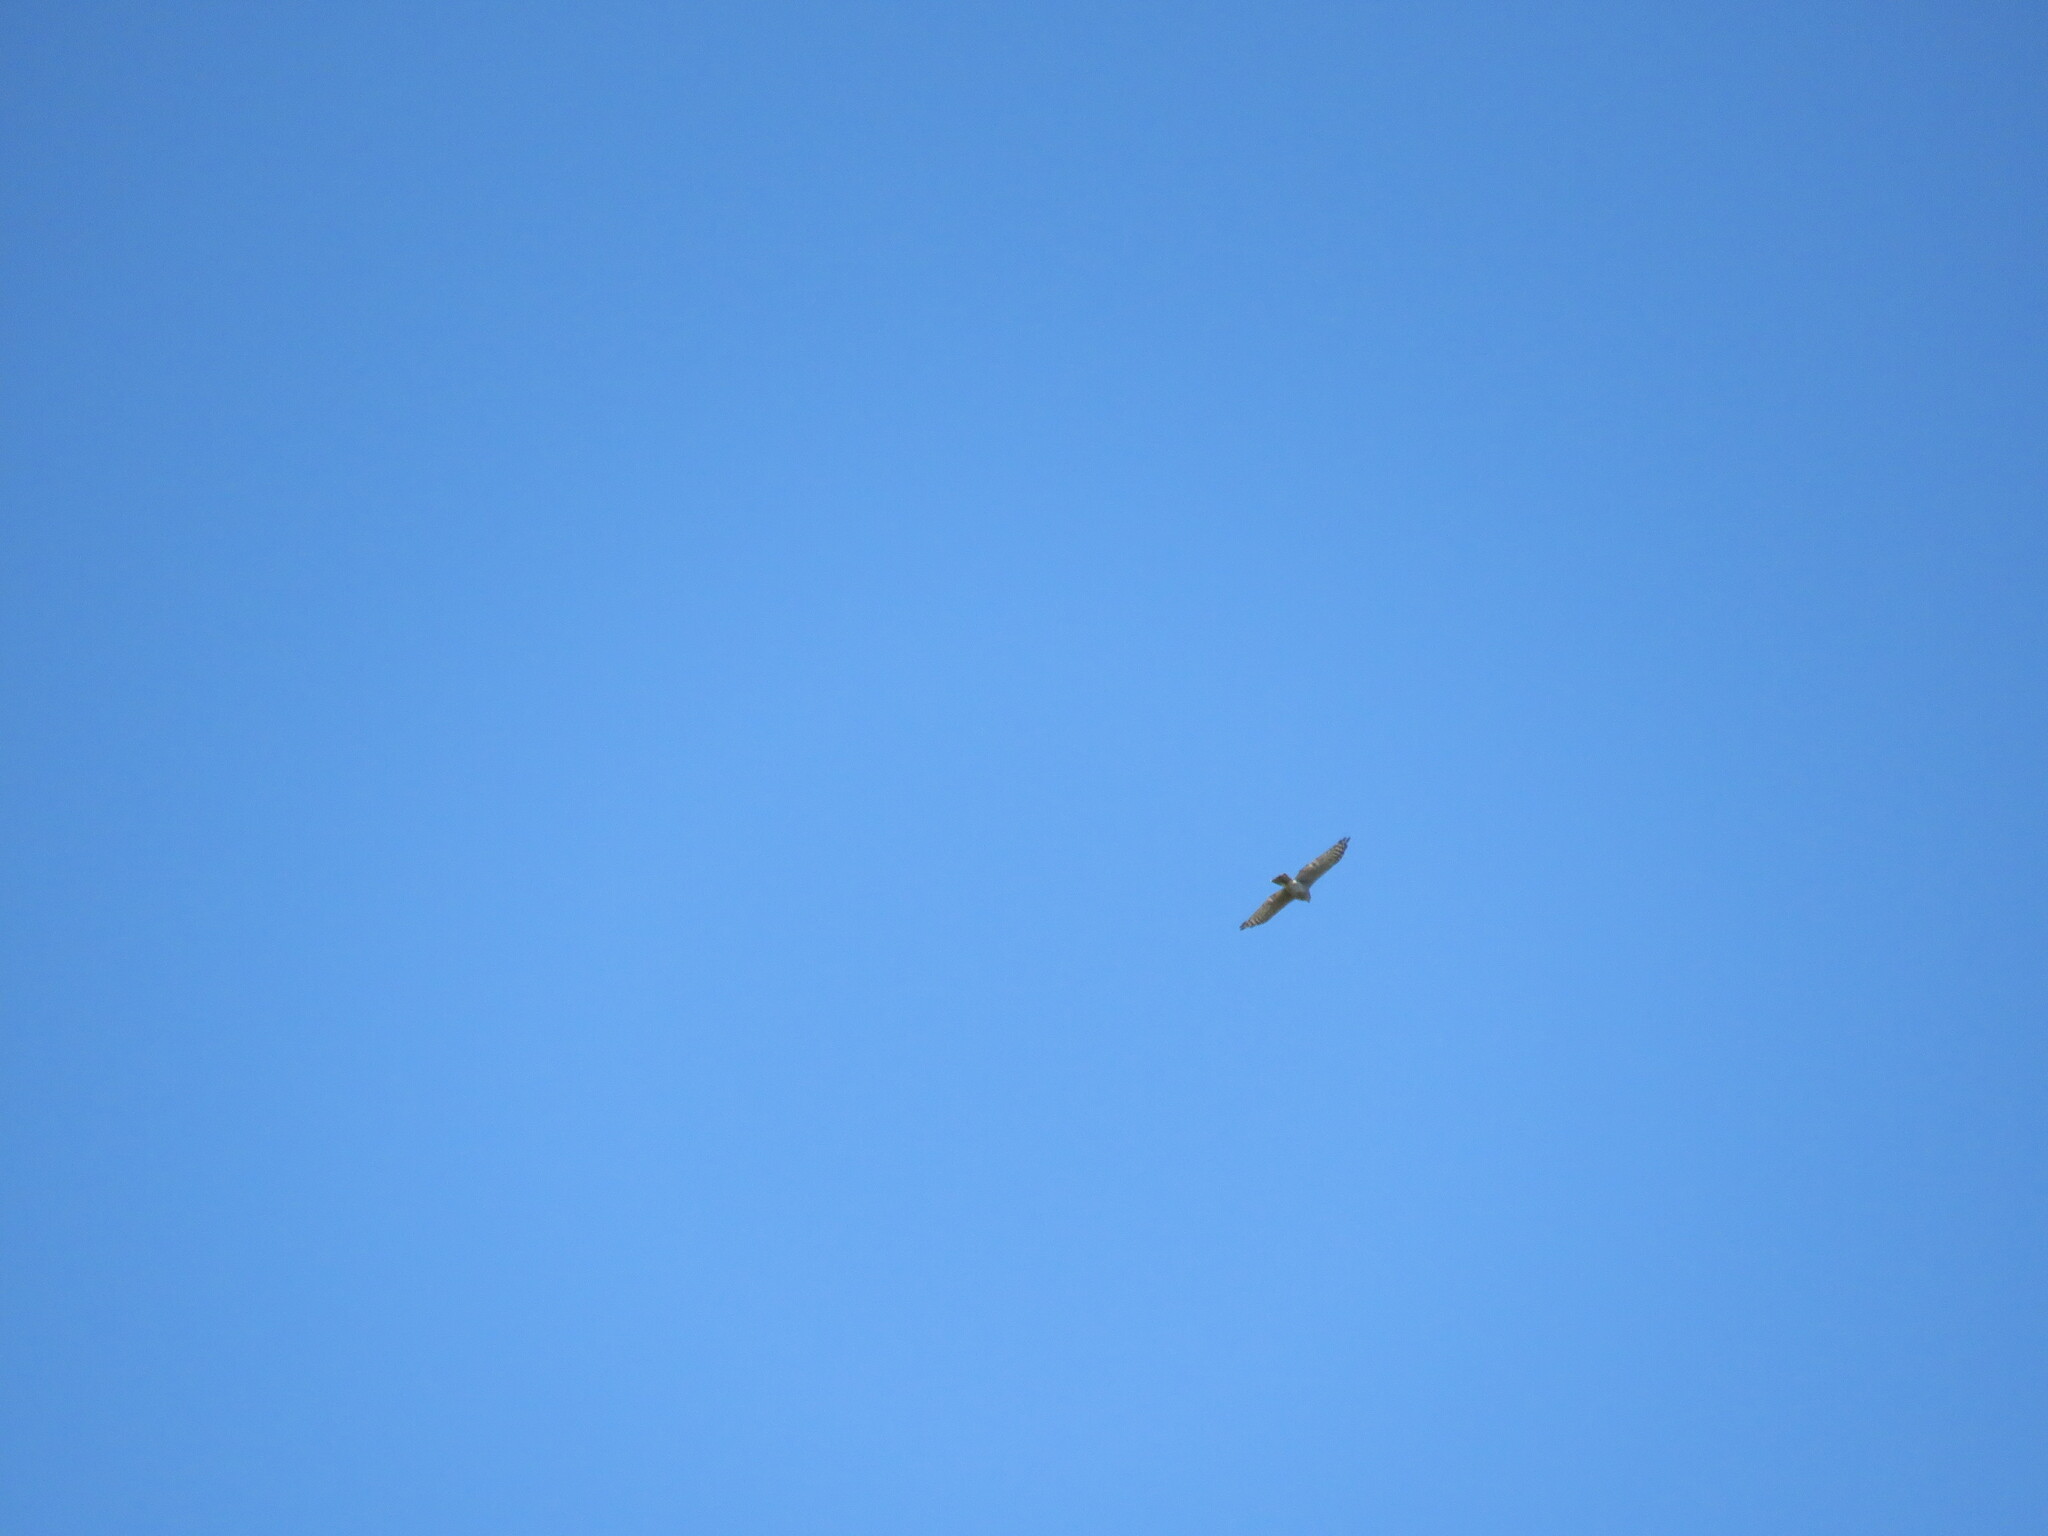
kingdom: Animalia
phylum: Chordata
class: Aves
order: Accipitriformes
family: Accipitridae
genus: Accipiter
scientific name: Accipiter nisus
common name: Eurasian sparrowhawk
